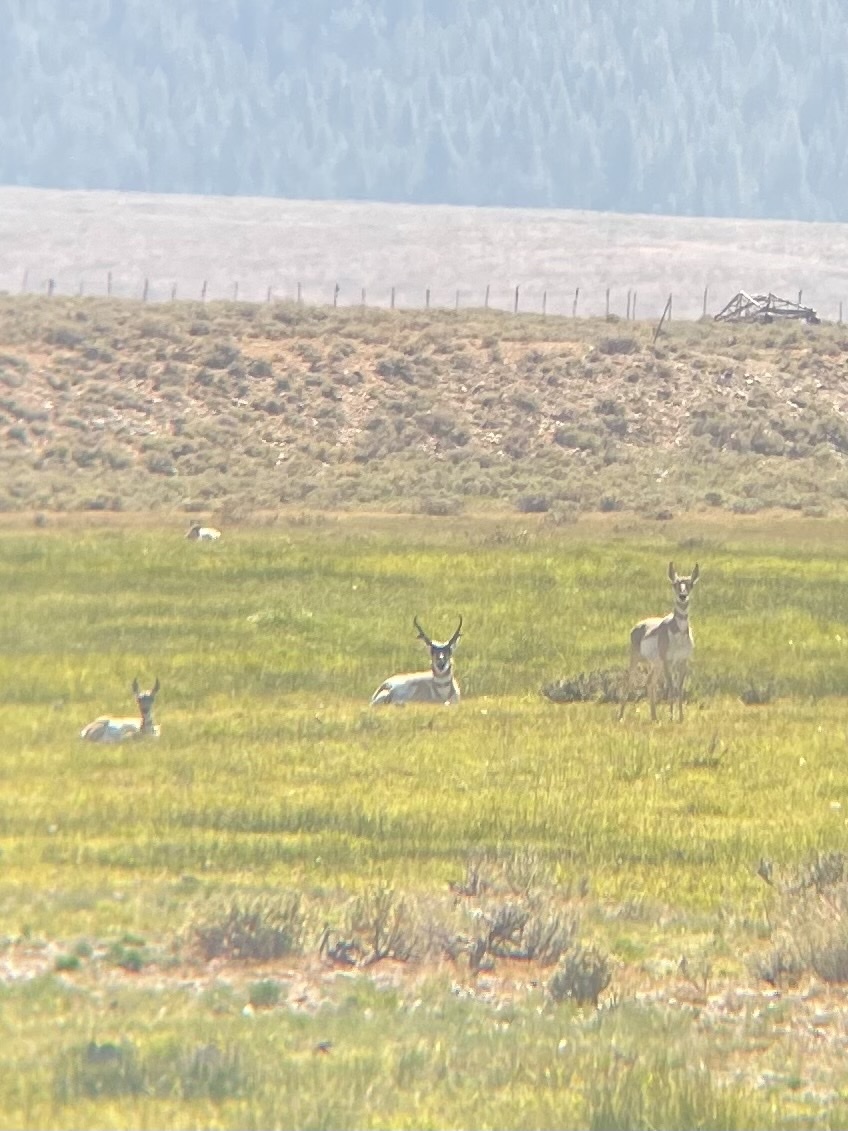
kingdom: Animalia
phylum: Chordata
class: Mammalia
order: Artiodactyla
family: Antilocapridae
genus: Antilocapra
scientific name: Antilocapra americana
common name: Pronghorn
